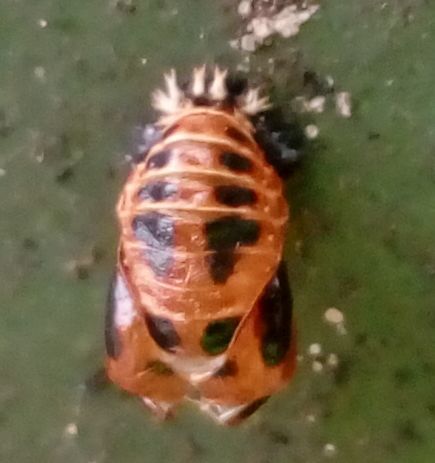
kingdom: Animalia
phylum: Arthropoda
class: Insecta
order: Coleoptera
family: Coccinellidae
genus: Harmonia
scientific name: Harmonia axyridis
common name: Harlequin ladybird
